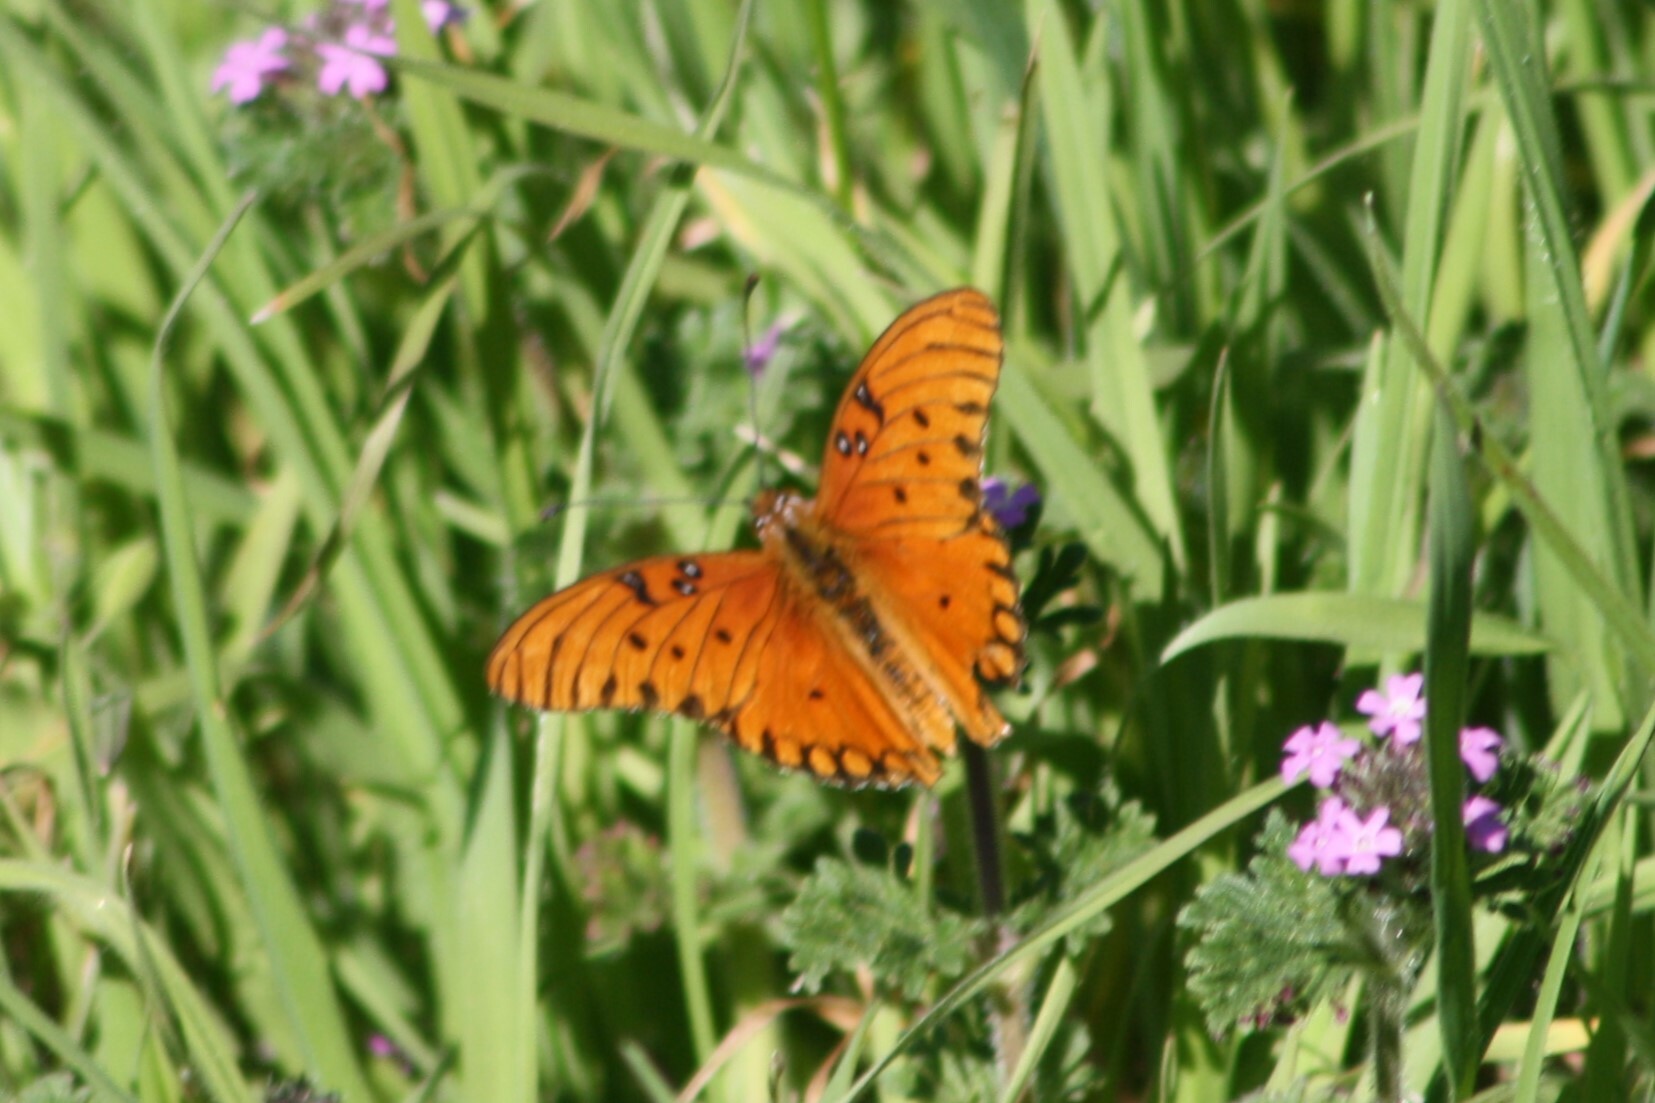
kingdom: Animalia
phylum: Arthropoda
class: Insecta
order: Lepidoptera
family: Nymphalidae
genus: Dione
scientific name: Dione vanillae
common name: Gulf fritillary
